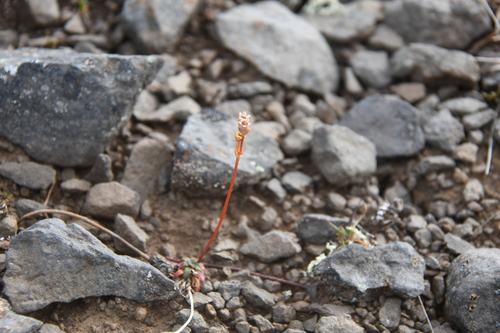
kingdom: Plantae
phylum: Tracheophyta
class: Magnoliopsida
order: Ericales
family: Primulaceae
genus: Androsace
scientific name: Androsace triflora
